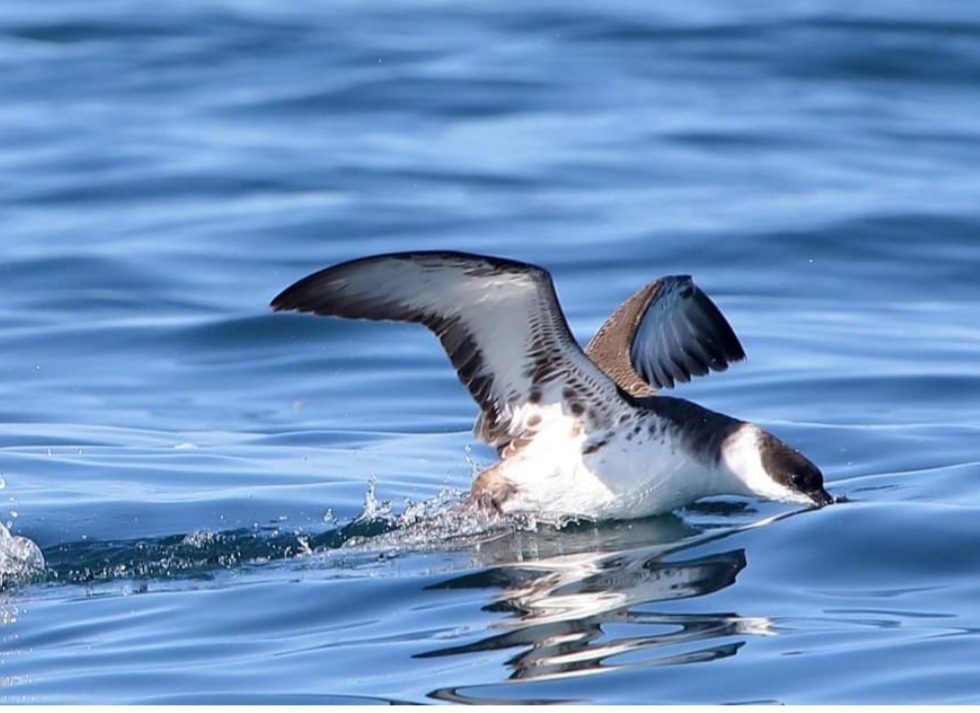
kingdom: Animalia
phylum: Chordata
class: Aves
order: Procellariiformes
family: Procellariidae
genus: Puffinus
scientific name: Puffinus gravis
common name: Great shearwater
